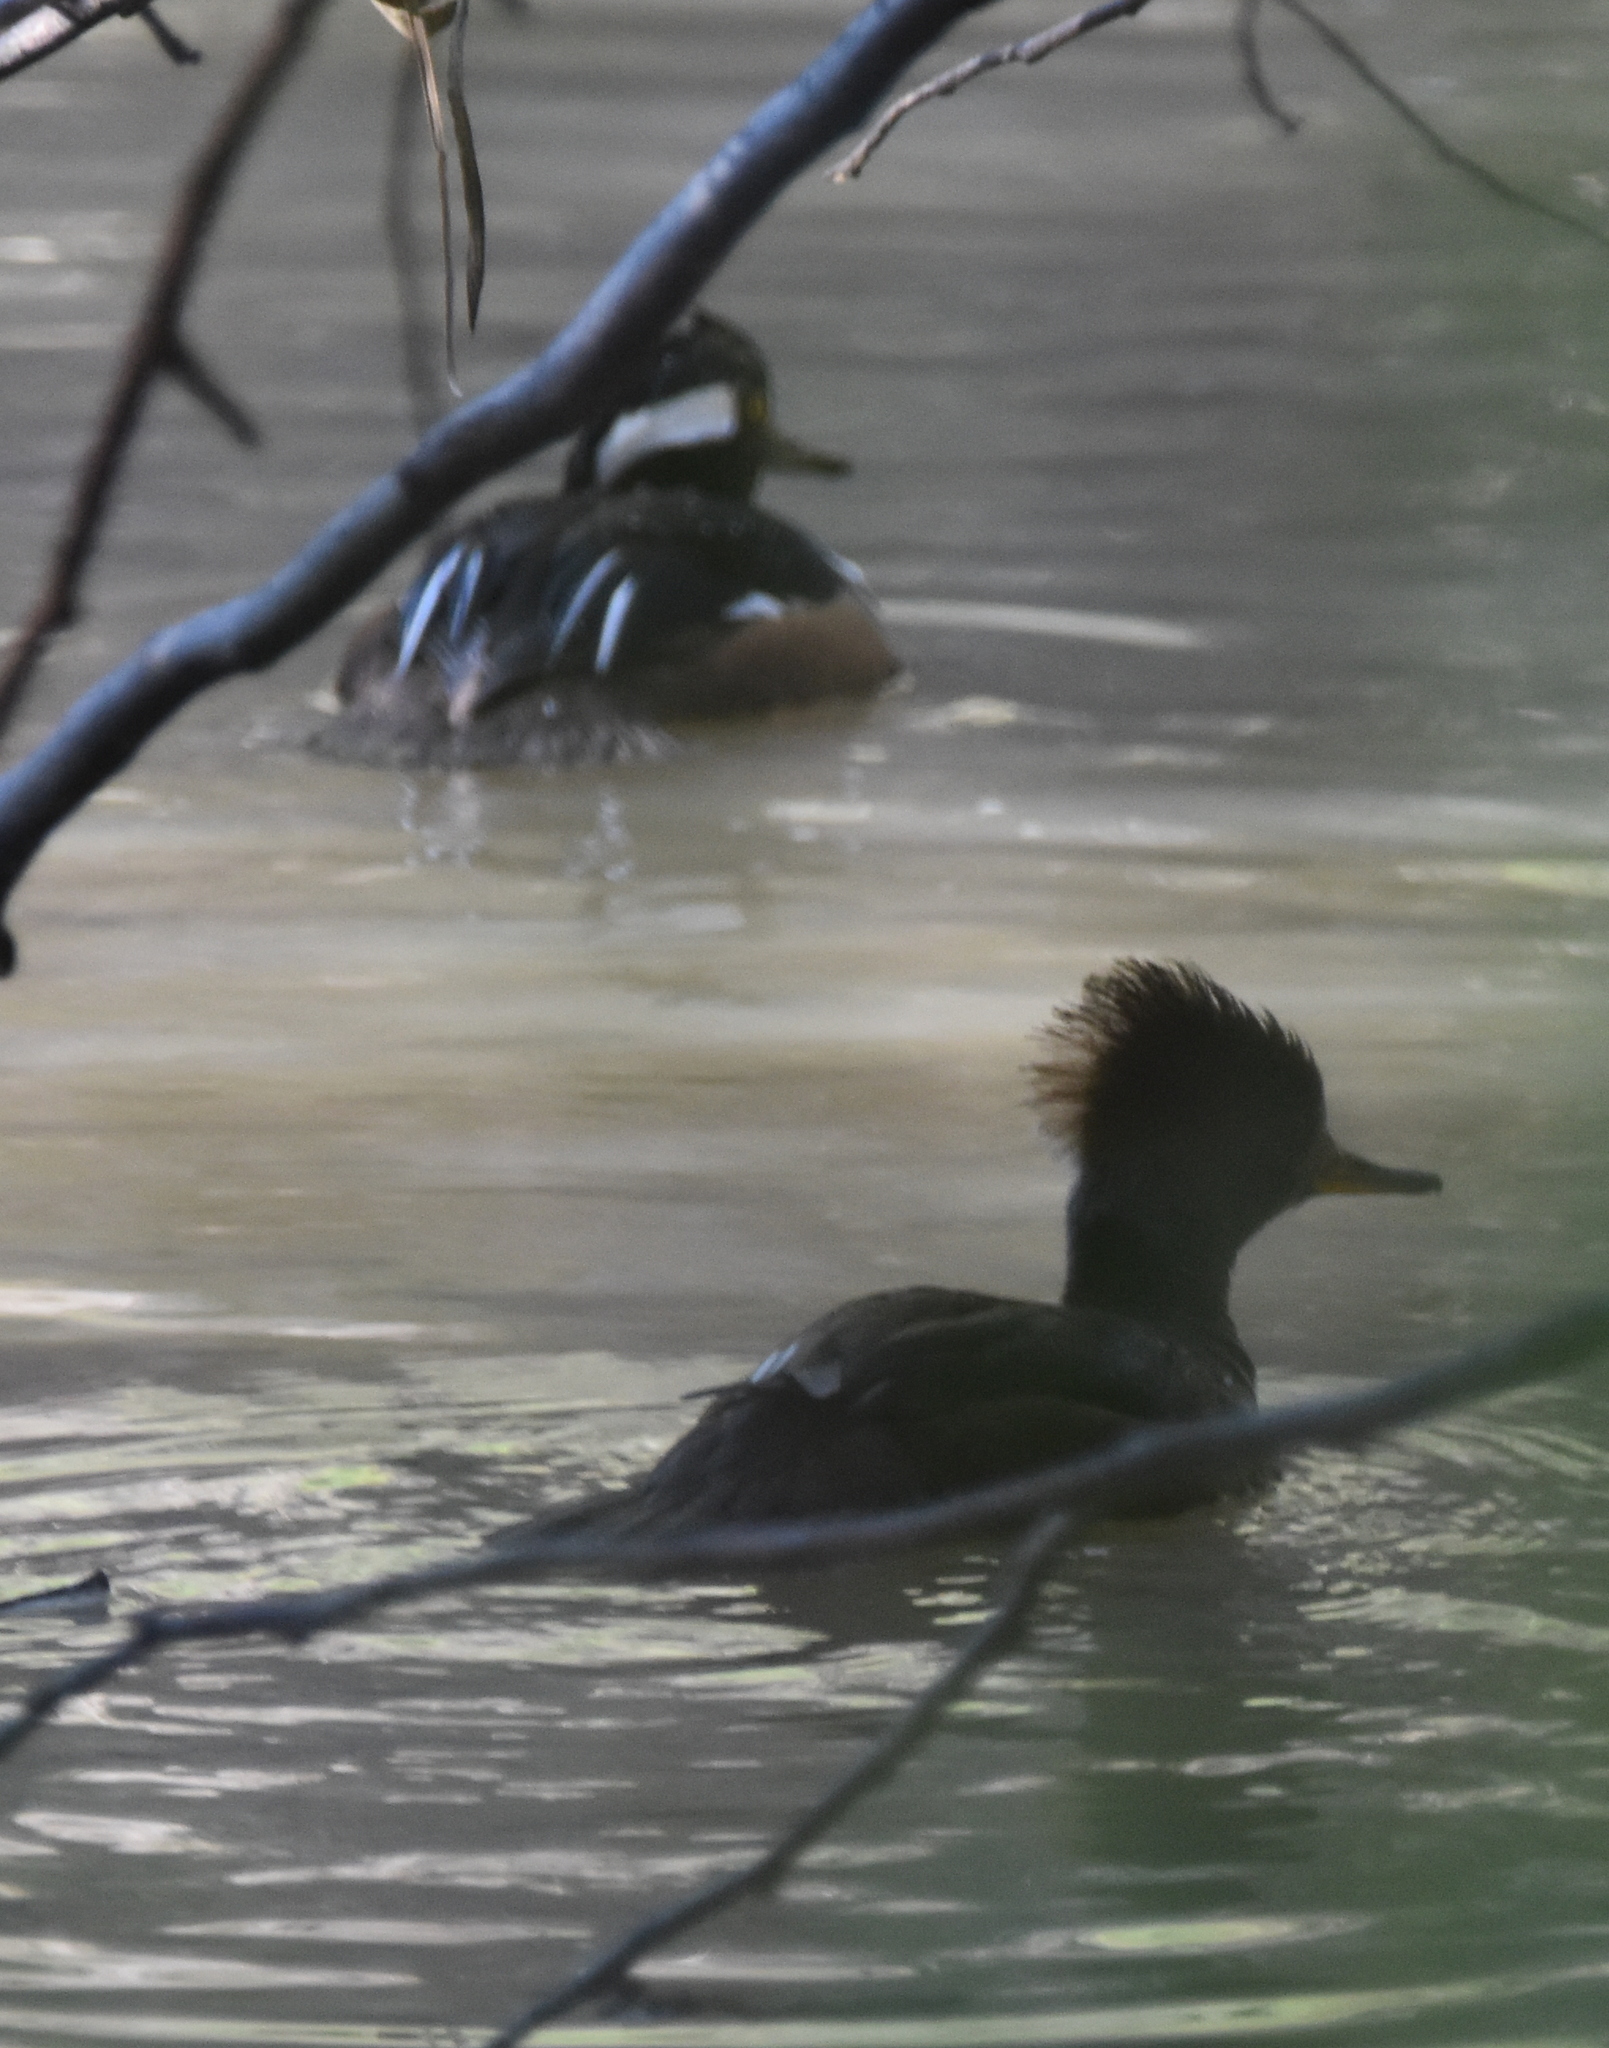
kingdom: Animalia
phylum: Chordata
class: Aves
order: Anseriformes
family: Anatidae
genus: Lophodytes
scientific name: Lophodytes cucullatus
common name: Hooded merganser
